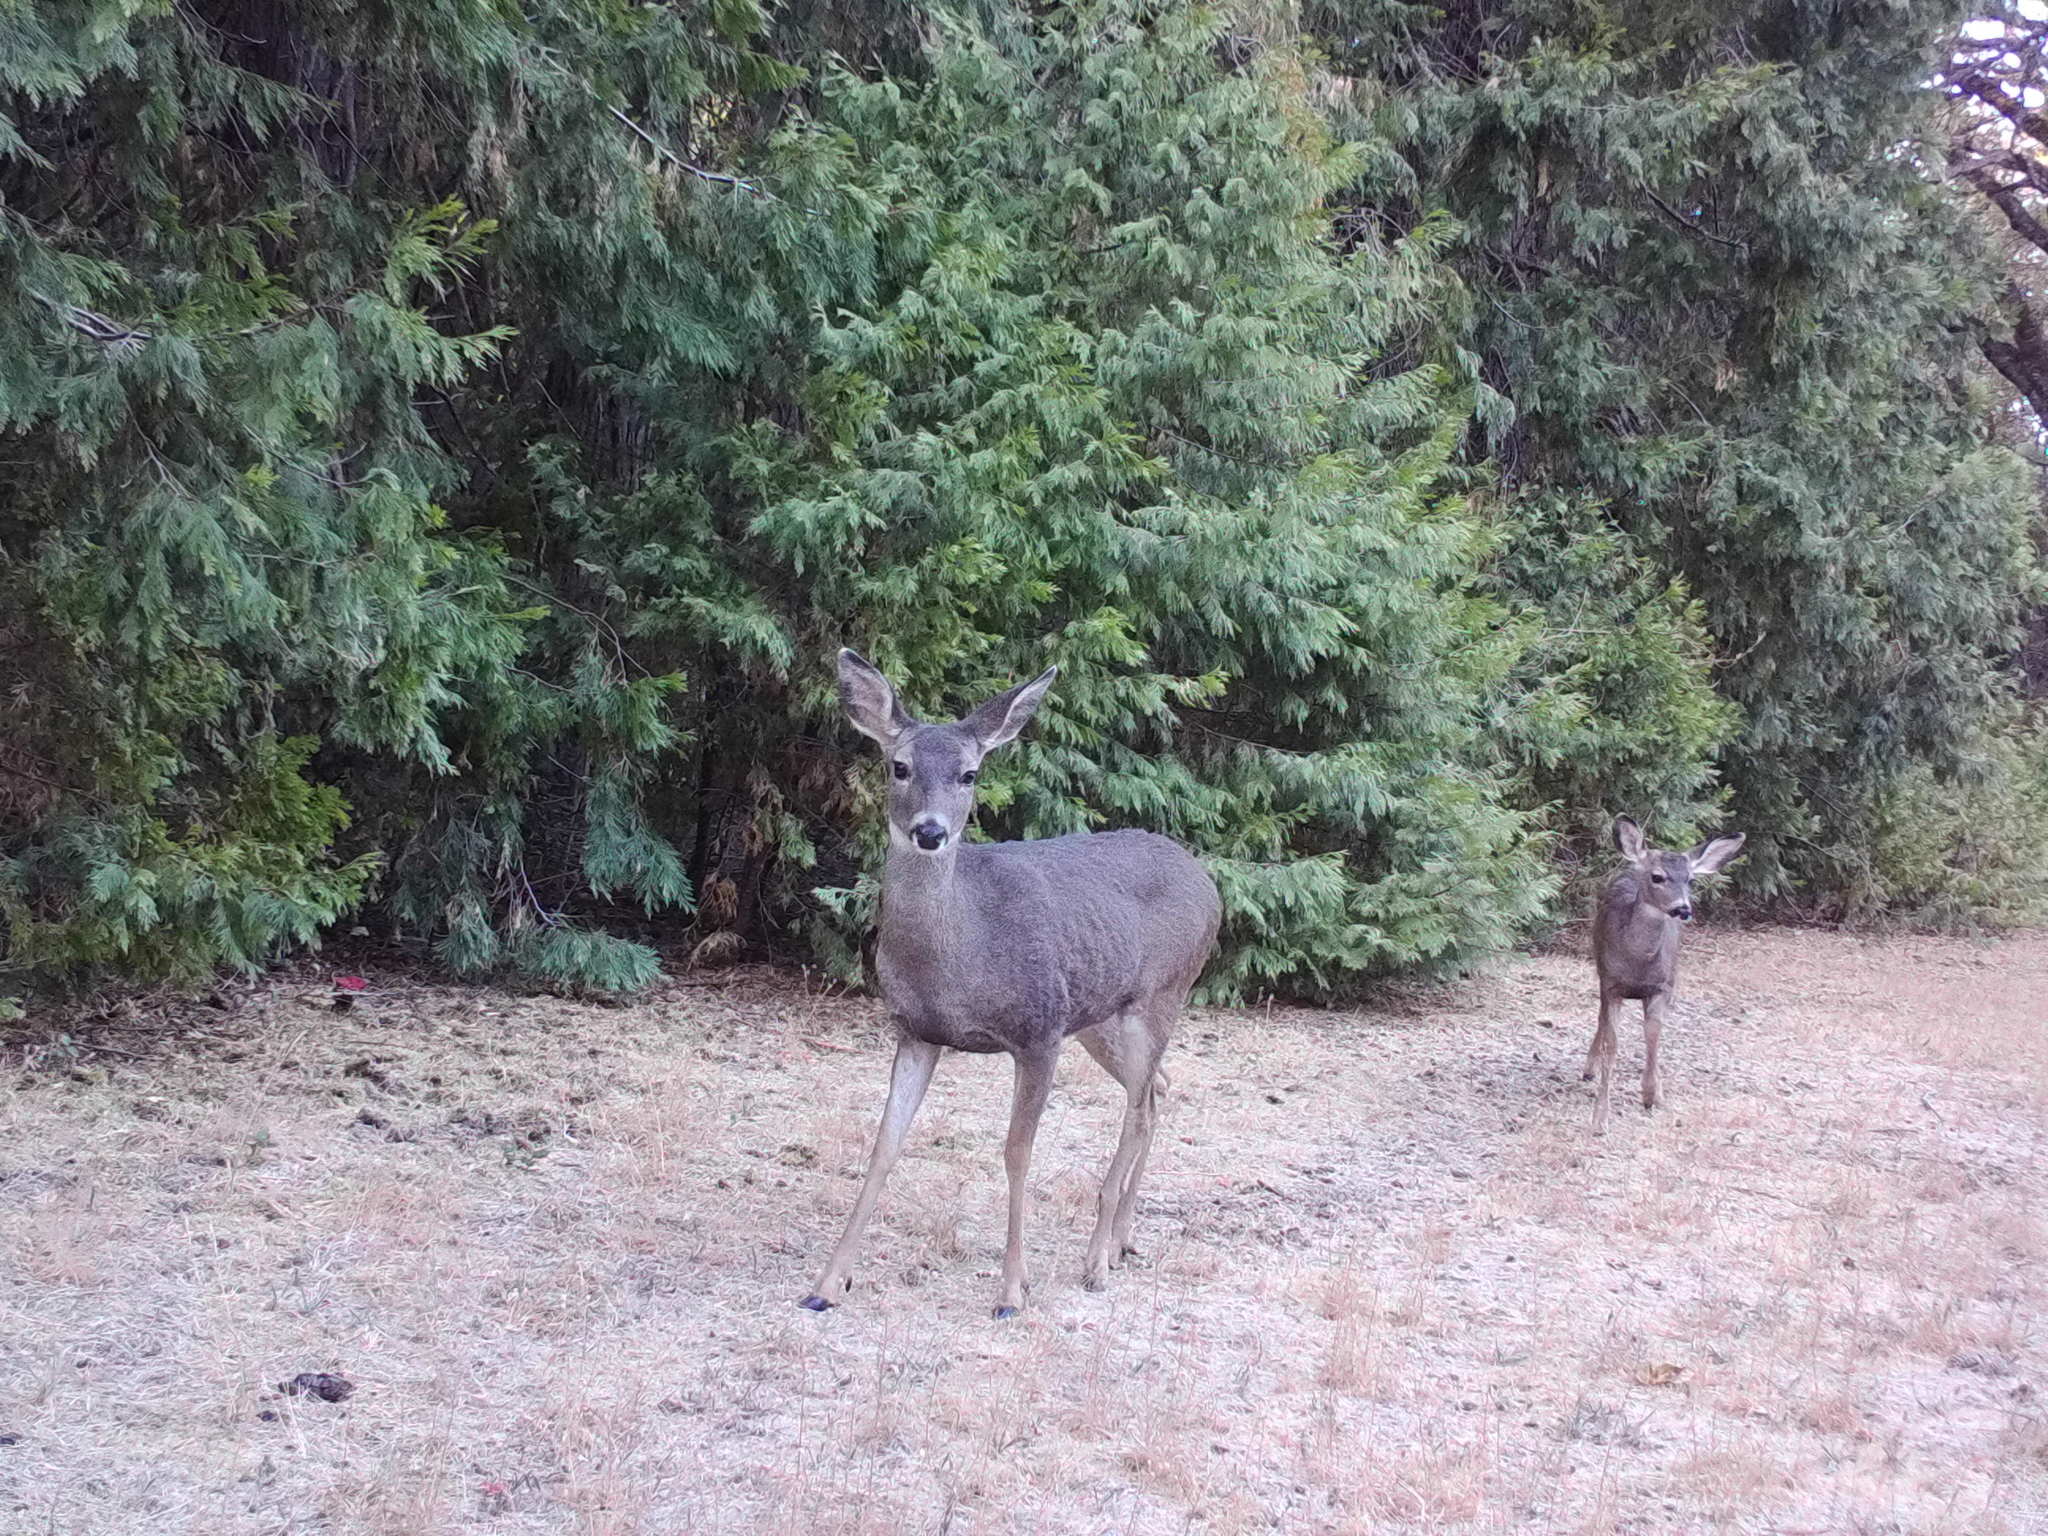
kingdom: Animalia
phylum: Chordata
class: Mammalia
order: Artiodactyla
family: Cervidae
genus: Odocoileus
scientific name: Odocoileus hemionus
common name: Mule deer
